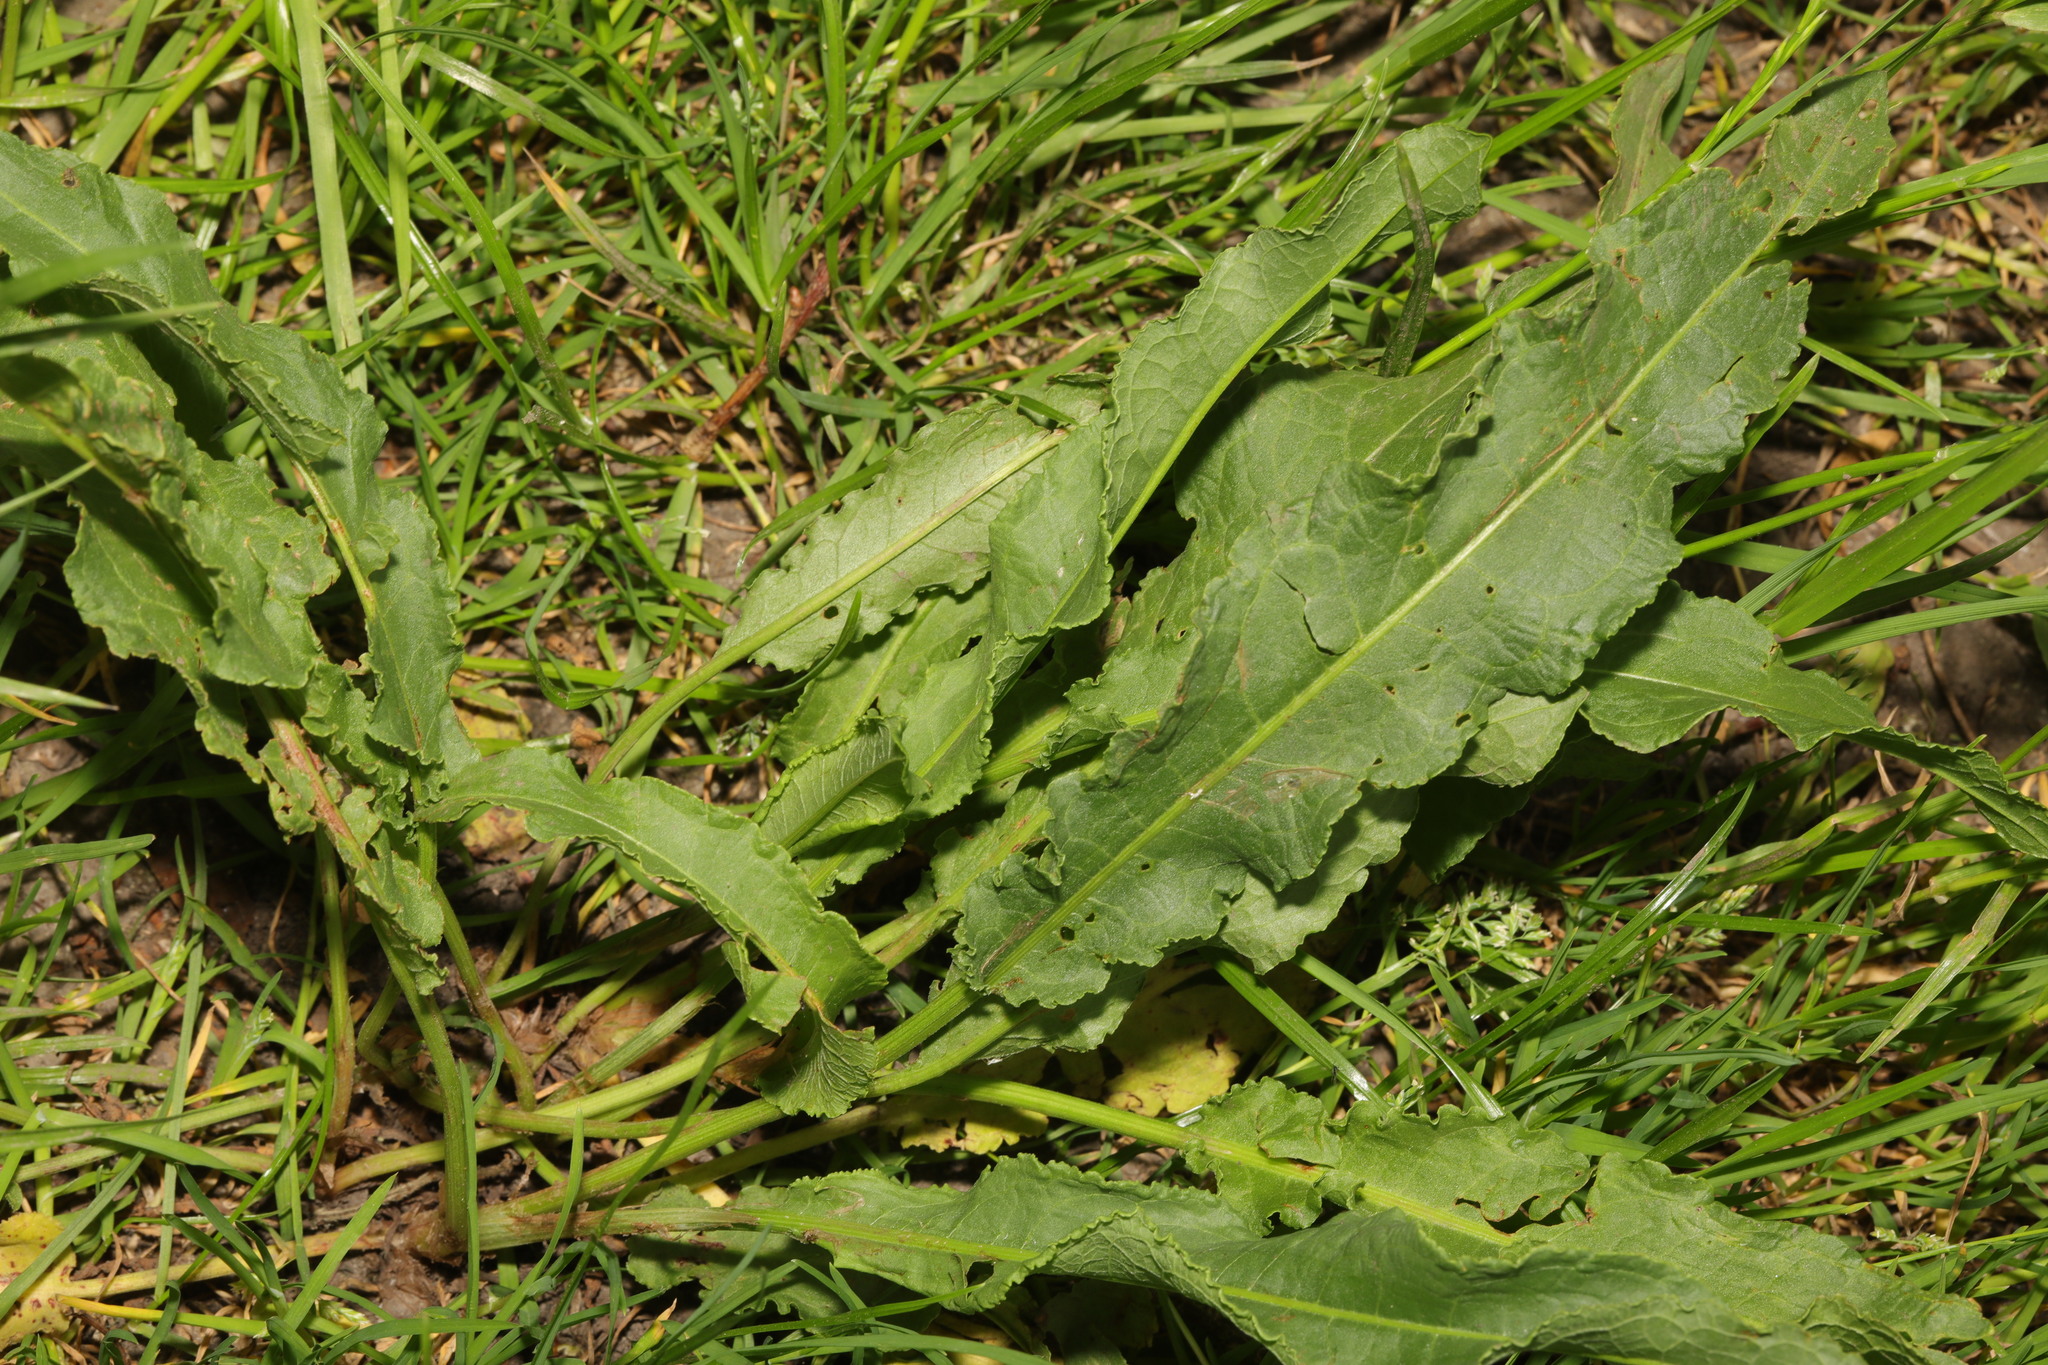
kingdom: Plantae
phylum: Tracheophyta
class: Magnoliopsida
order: Caryophyllales
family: Polygonaceae
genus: Rumex
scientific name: Rumex crispus
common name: Curled dock
